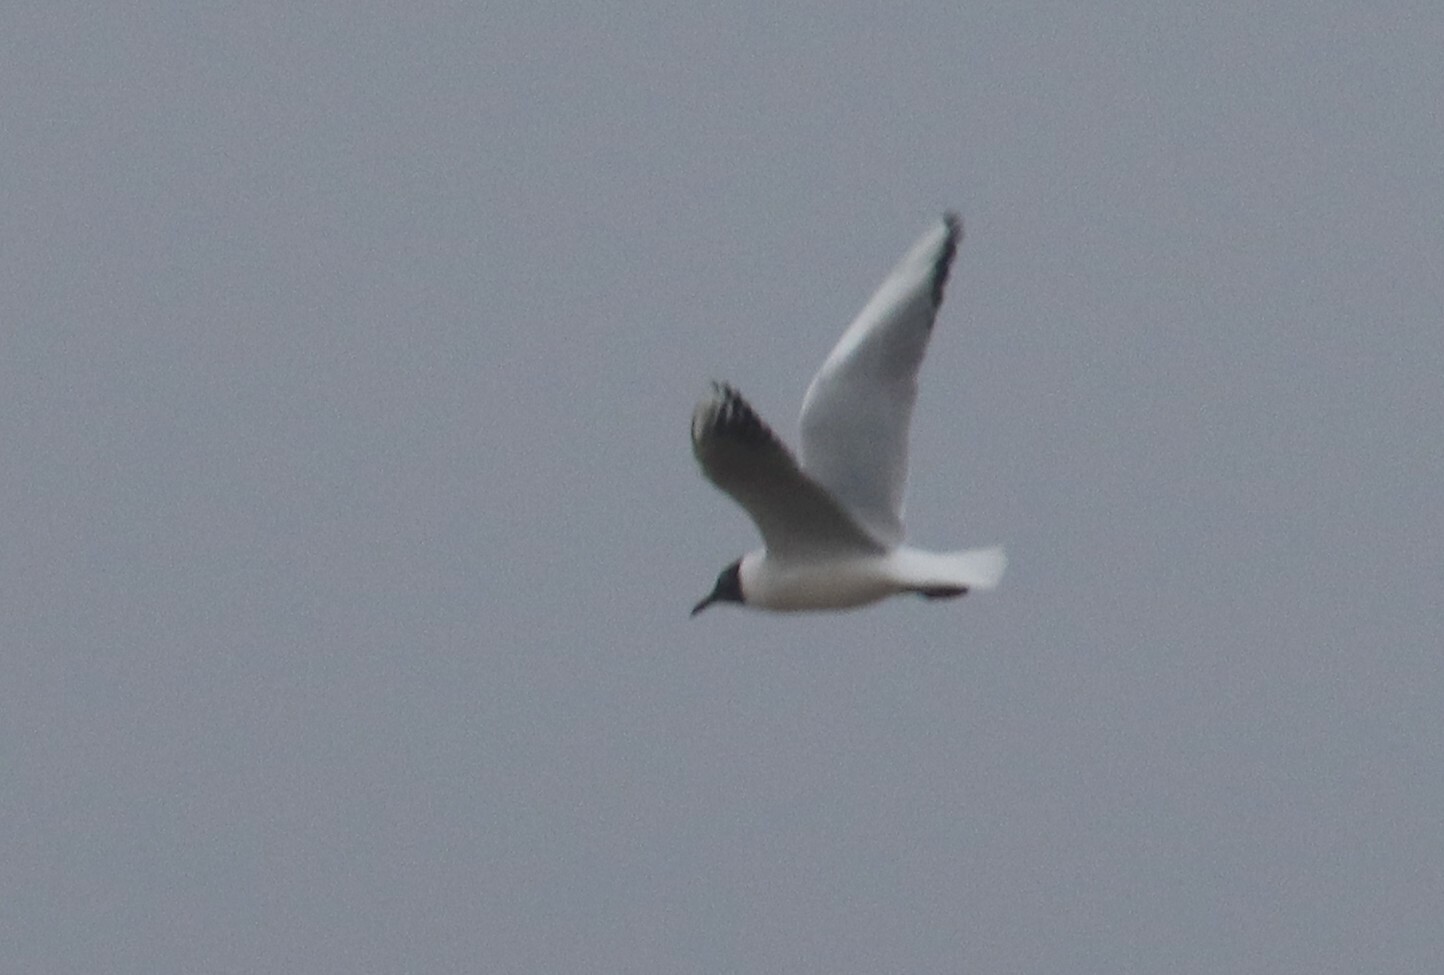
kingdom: Animalia
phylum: Chordata
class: Aves
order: Charadriiformes
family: Laridae
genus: Chroicocephalus
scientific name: Chroicocephalus ridibundus
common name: Black-headed gull
